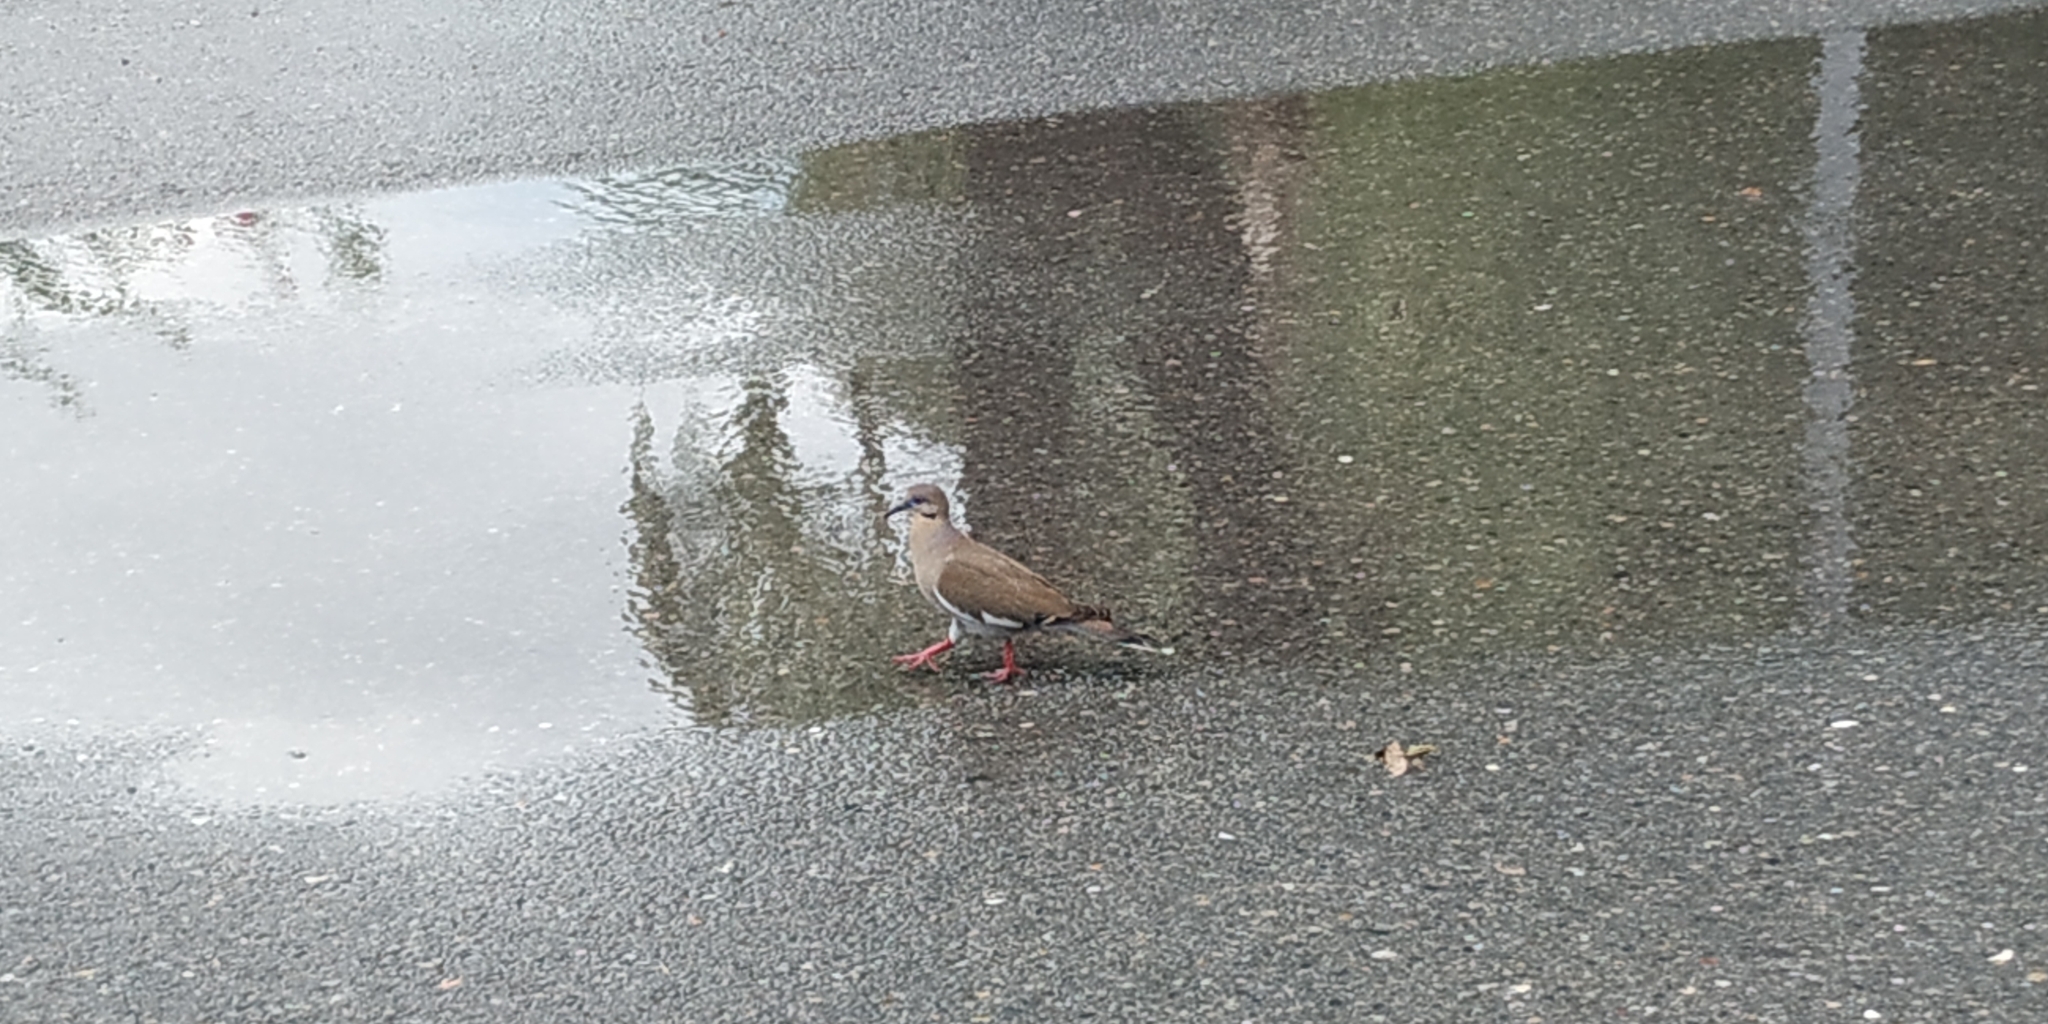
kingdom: Animalia
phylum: Chordata
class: Aves
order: Columbiformes
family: Columbidae
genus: Zenaida
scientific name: Zenaida asiatica
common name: White-winged dove
